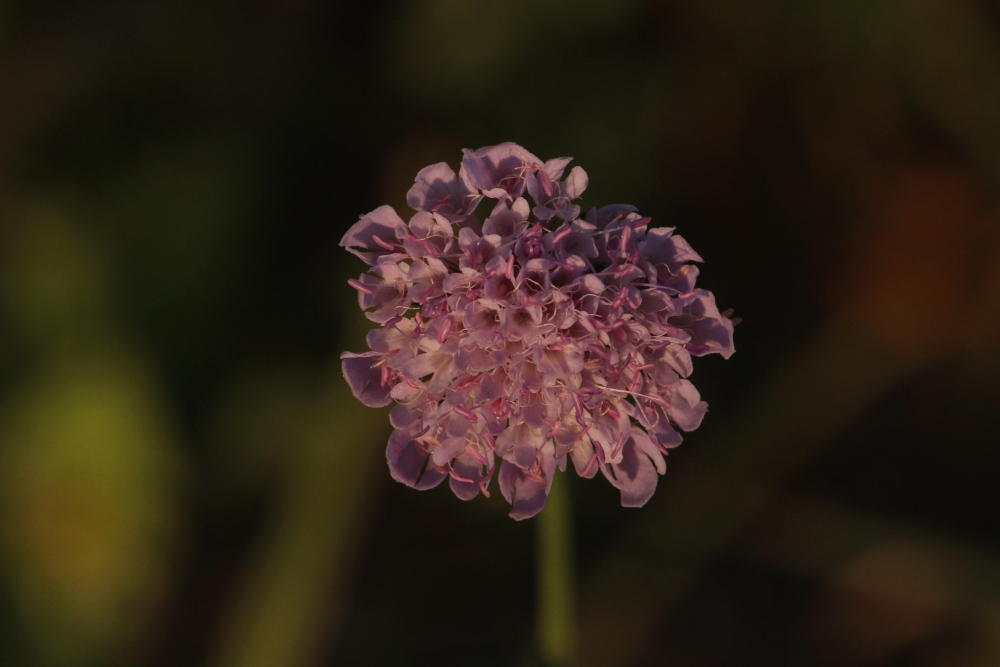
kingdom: Plantae
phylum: Tracheophyta
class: Magnoliopsida
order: Dipsacales
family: Caprifoliaceae
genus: Scabiosa
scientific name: Scabiosa columbaria
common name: Small scabious
